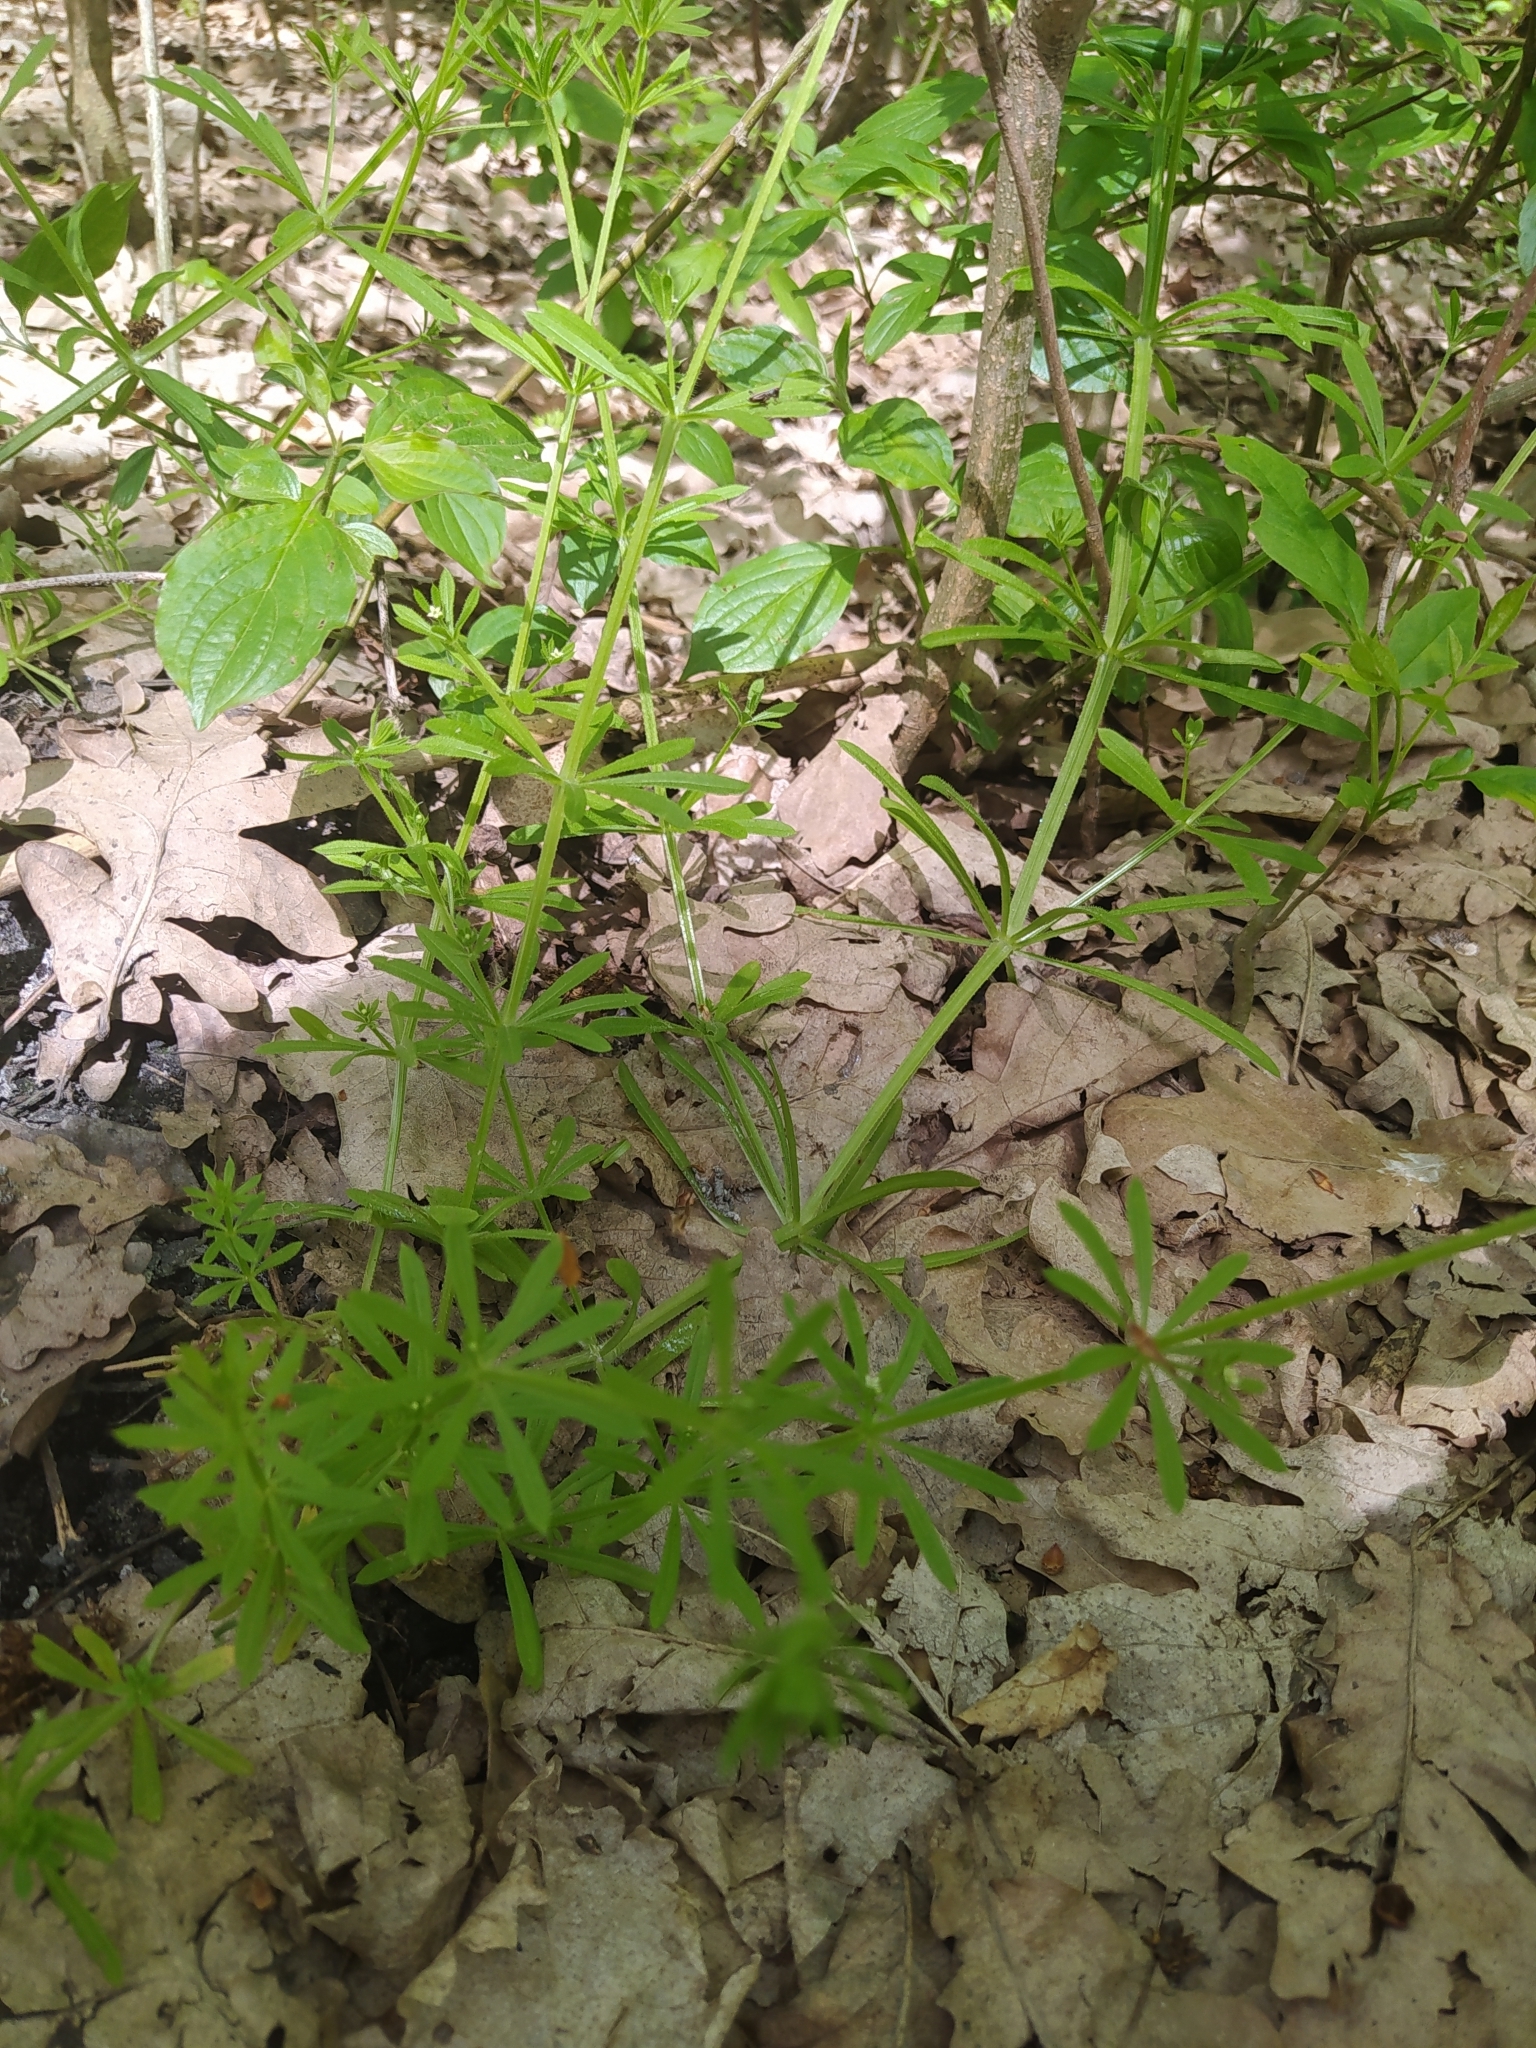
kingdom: Plantae
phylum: Tracheophyta
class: Magnoliopsida
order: Gentianales
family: Rubiaceae
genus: Galium
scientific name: Galium aparine
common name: Cleavers
